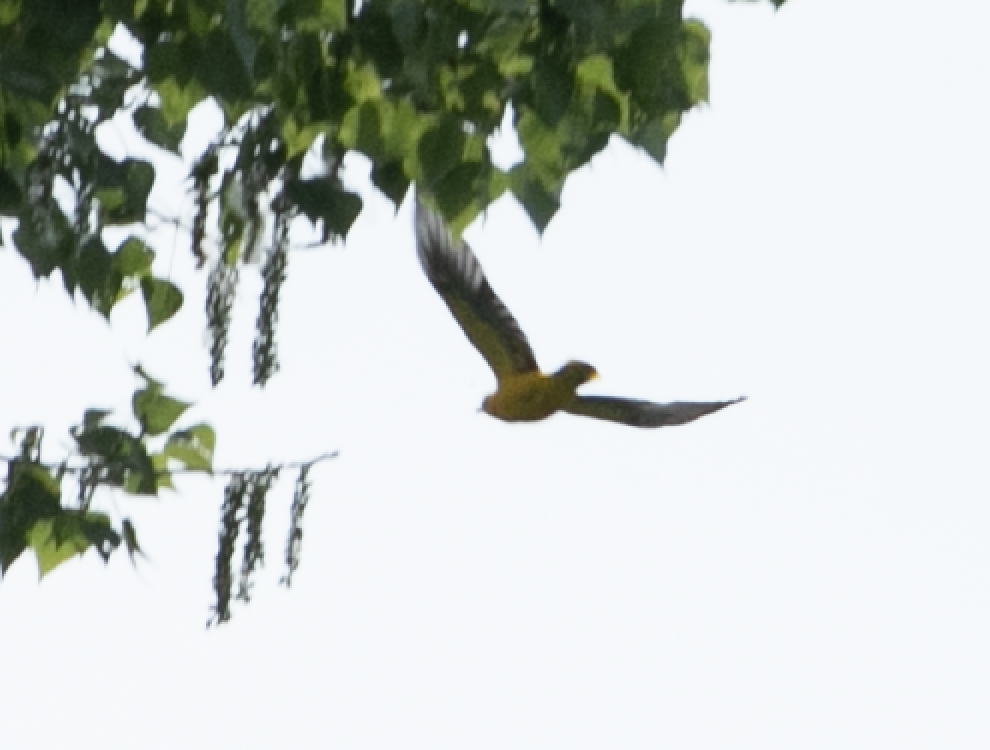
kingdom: Animalia
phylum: Chordata
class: Aves
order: Passeriformes
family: Oriolidae
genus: Oriolus
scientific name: Oriolus oriolus
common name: Eurasian golden oriole
